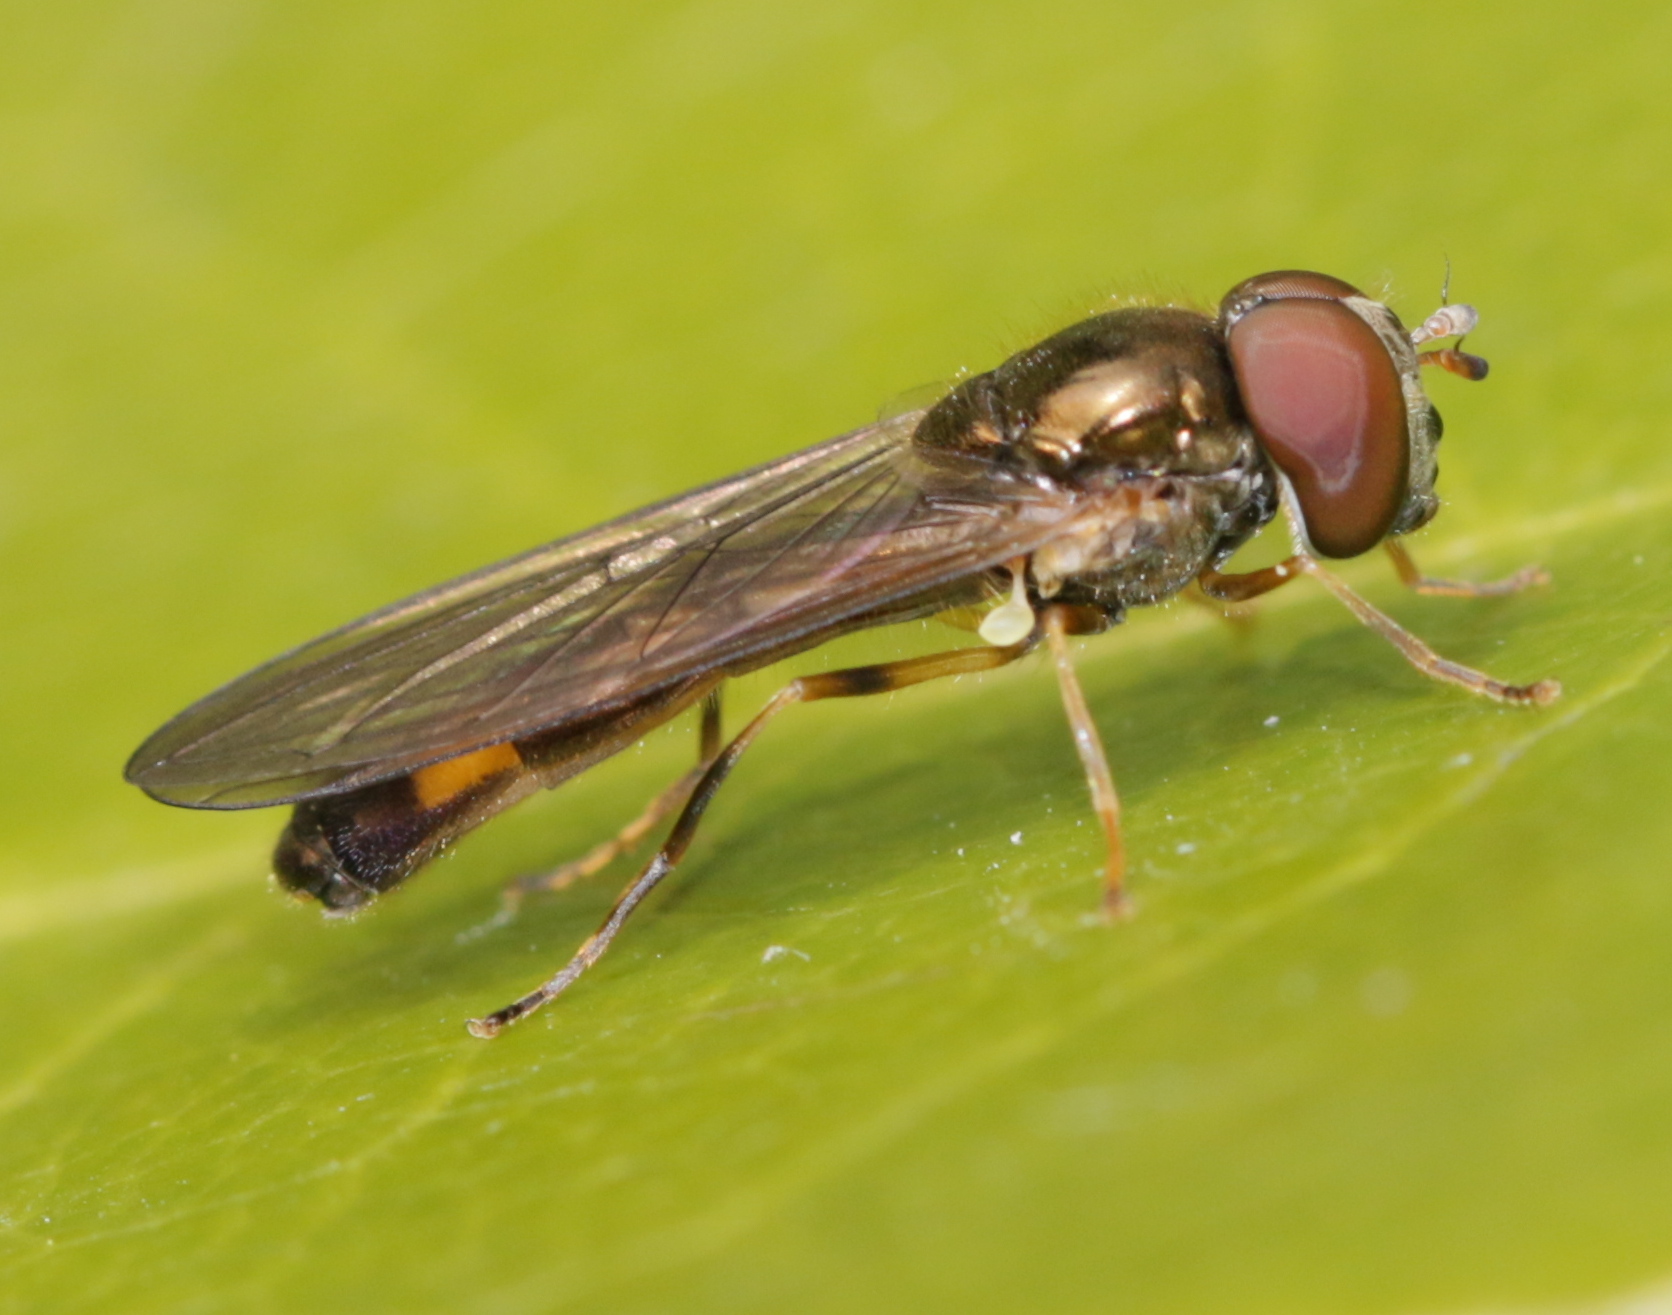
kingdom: Animalia
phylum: Arthropoda
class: Insecta
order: Diptera
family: Syrphidae
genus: Melanostoma
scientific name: Melanostoma scalare
